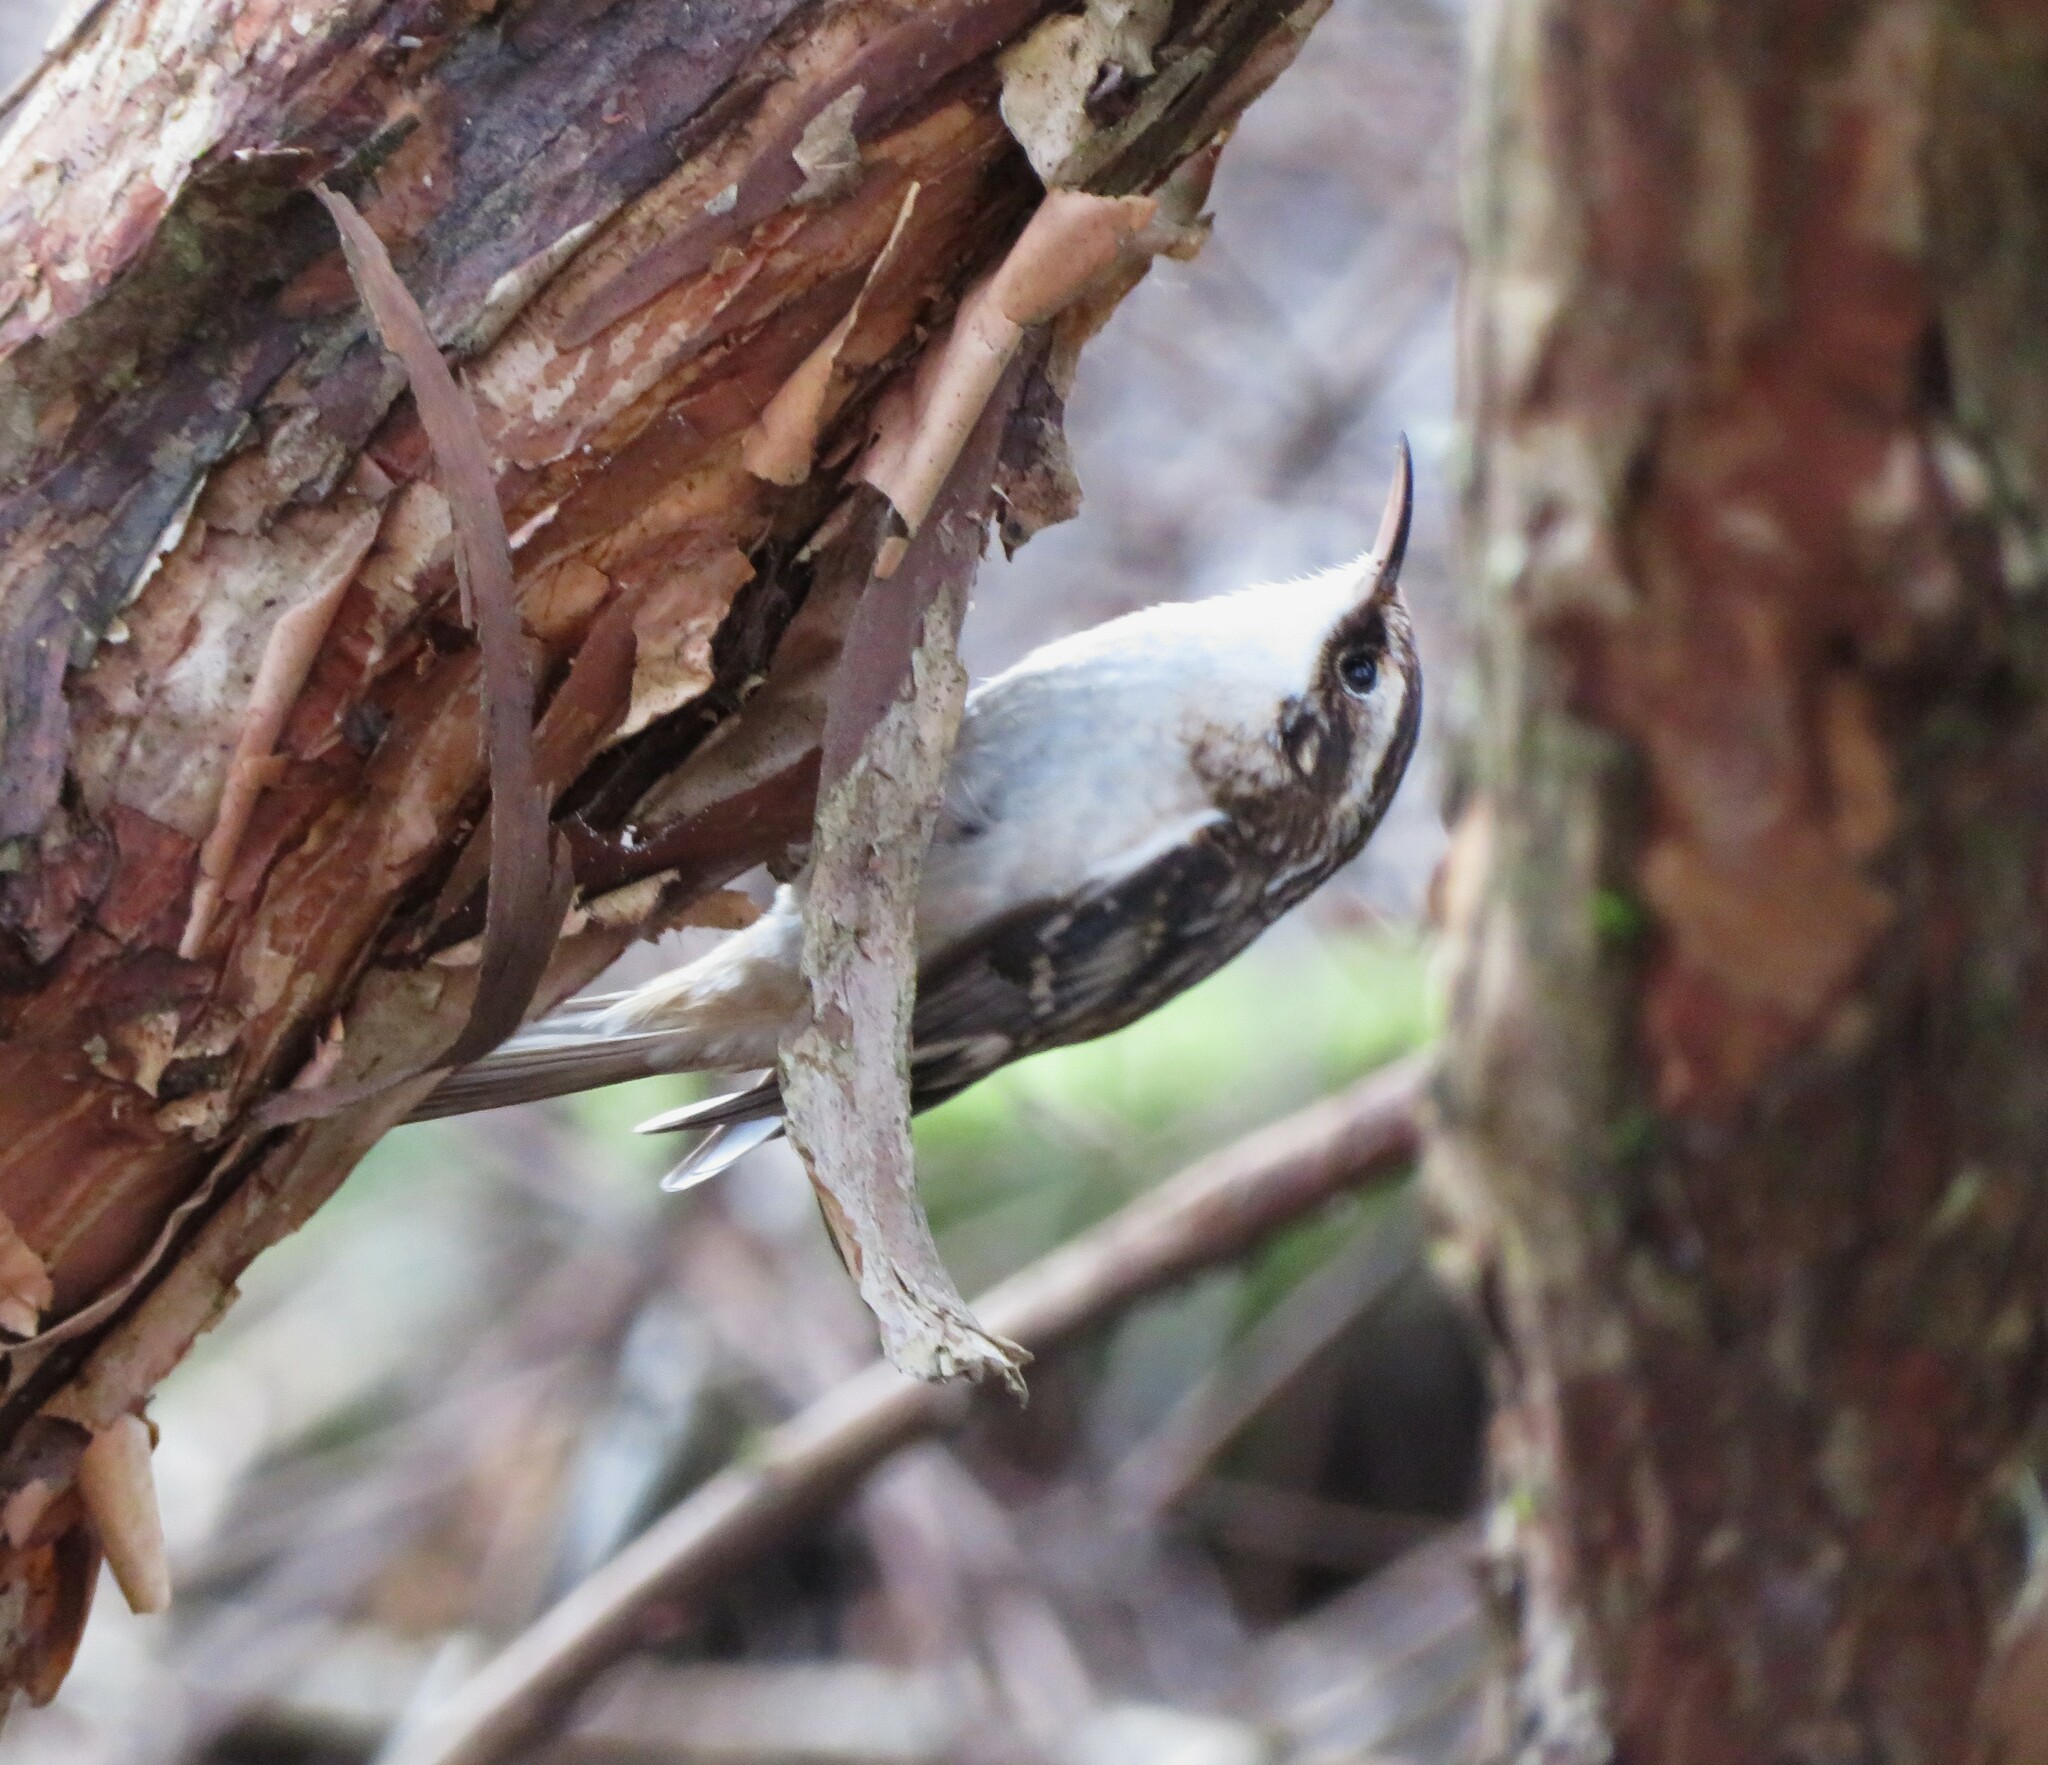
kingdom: Animalia
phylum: Chordata
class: Aves
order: Passeriformes
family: Certhiidae
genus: Certhia
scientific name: Certhia americana
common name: Brown creeper
